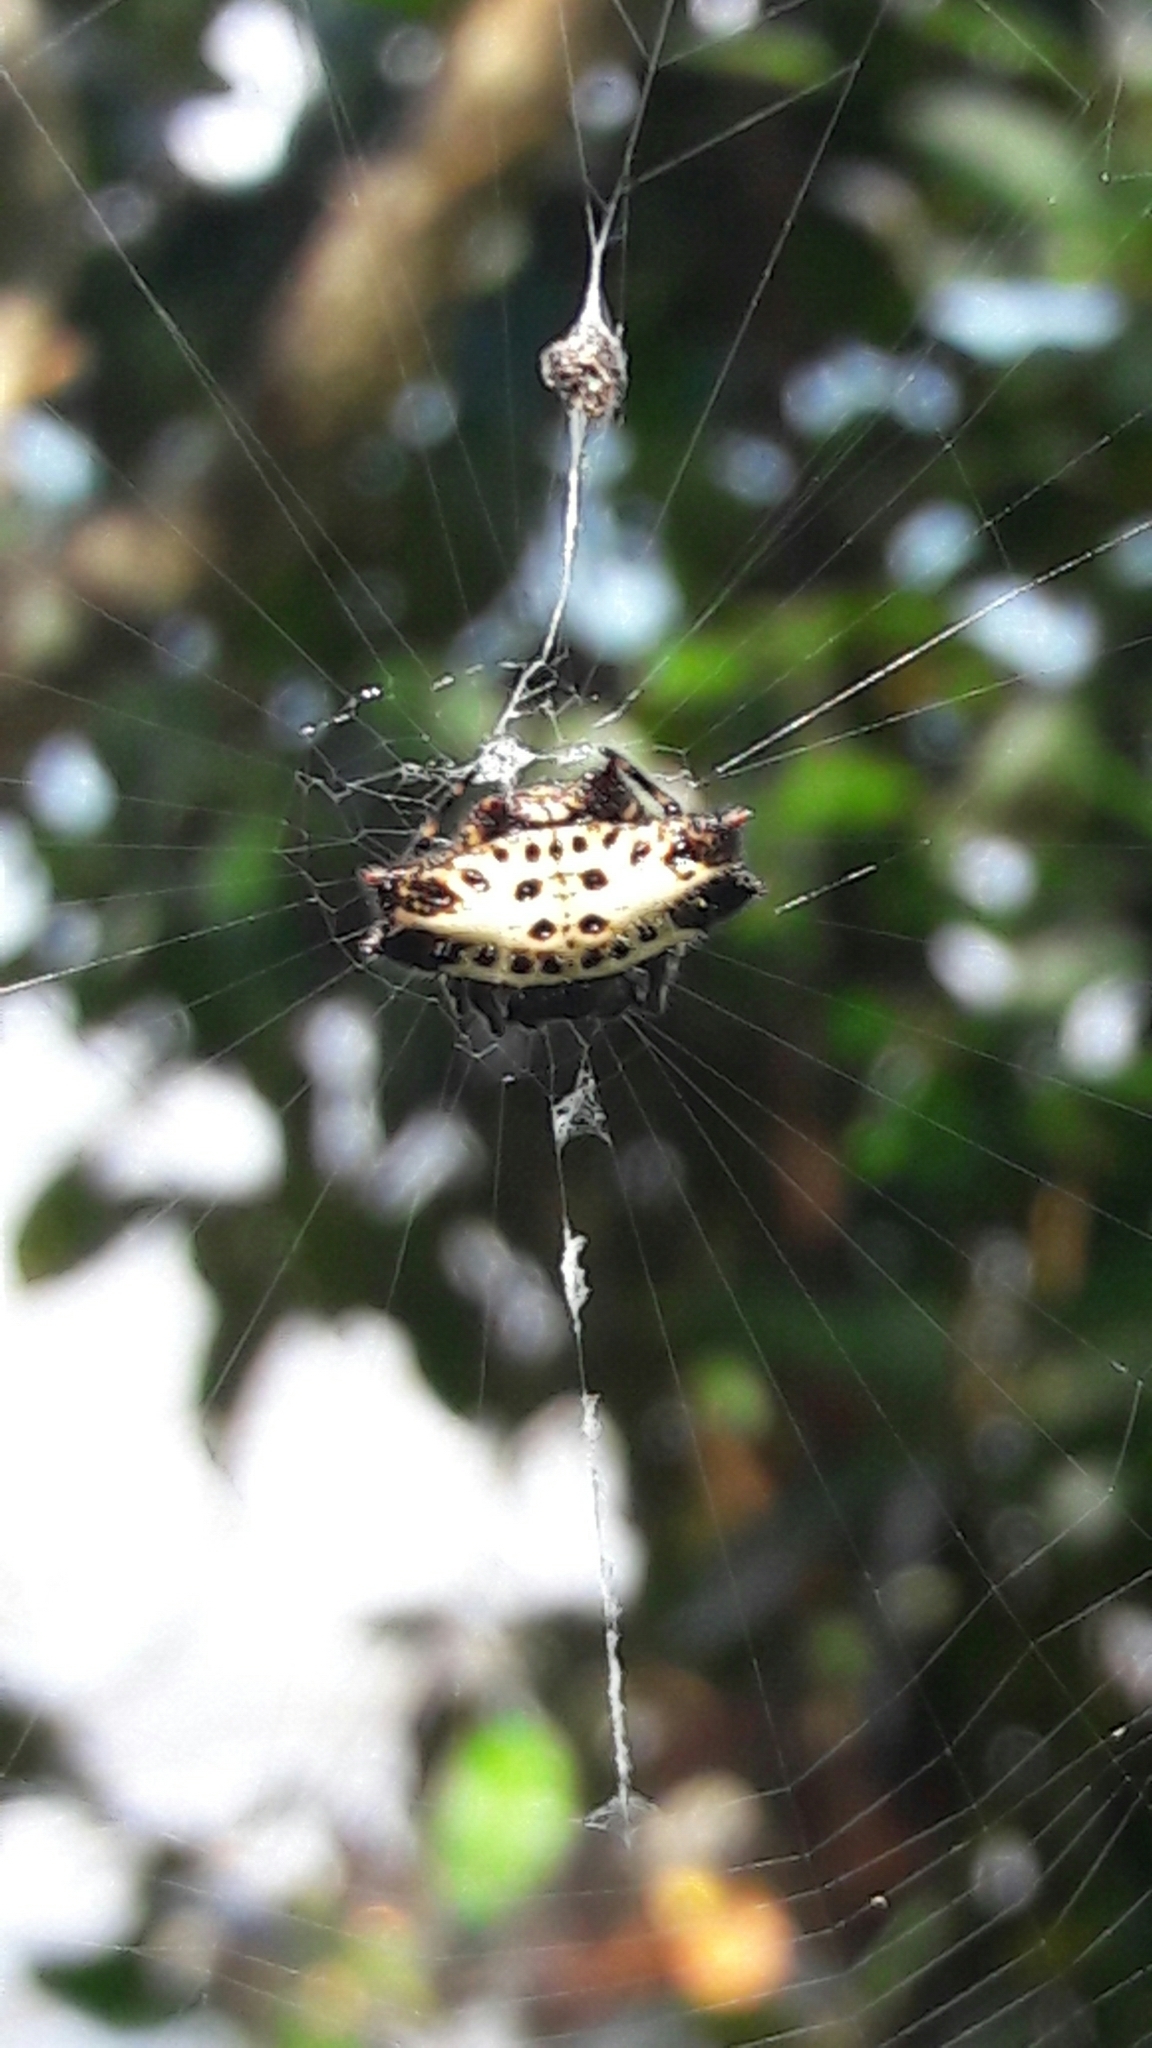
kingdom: Animalia
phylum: Arthropoda
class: Arachnida
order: Araneae
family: Araneidae
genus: Gasteracantha
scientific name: Gasteracantha cancriformis
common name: Orb weavers
